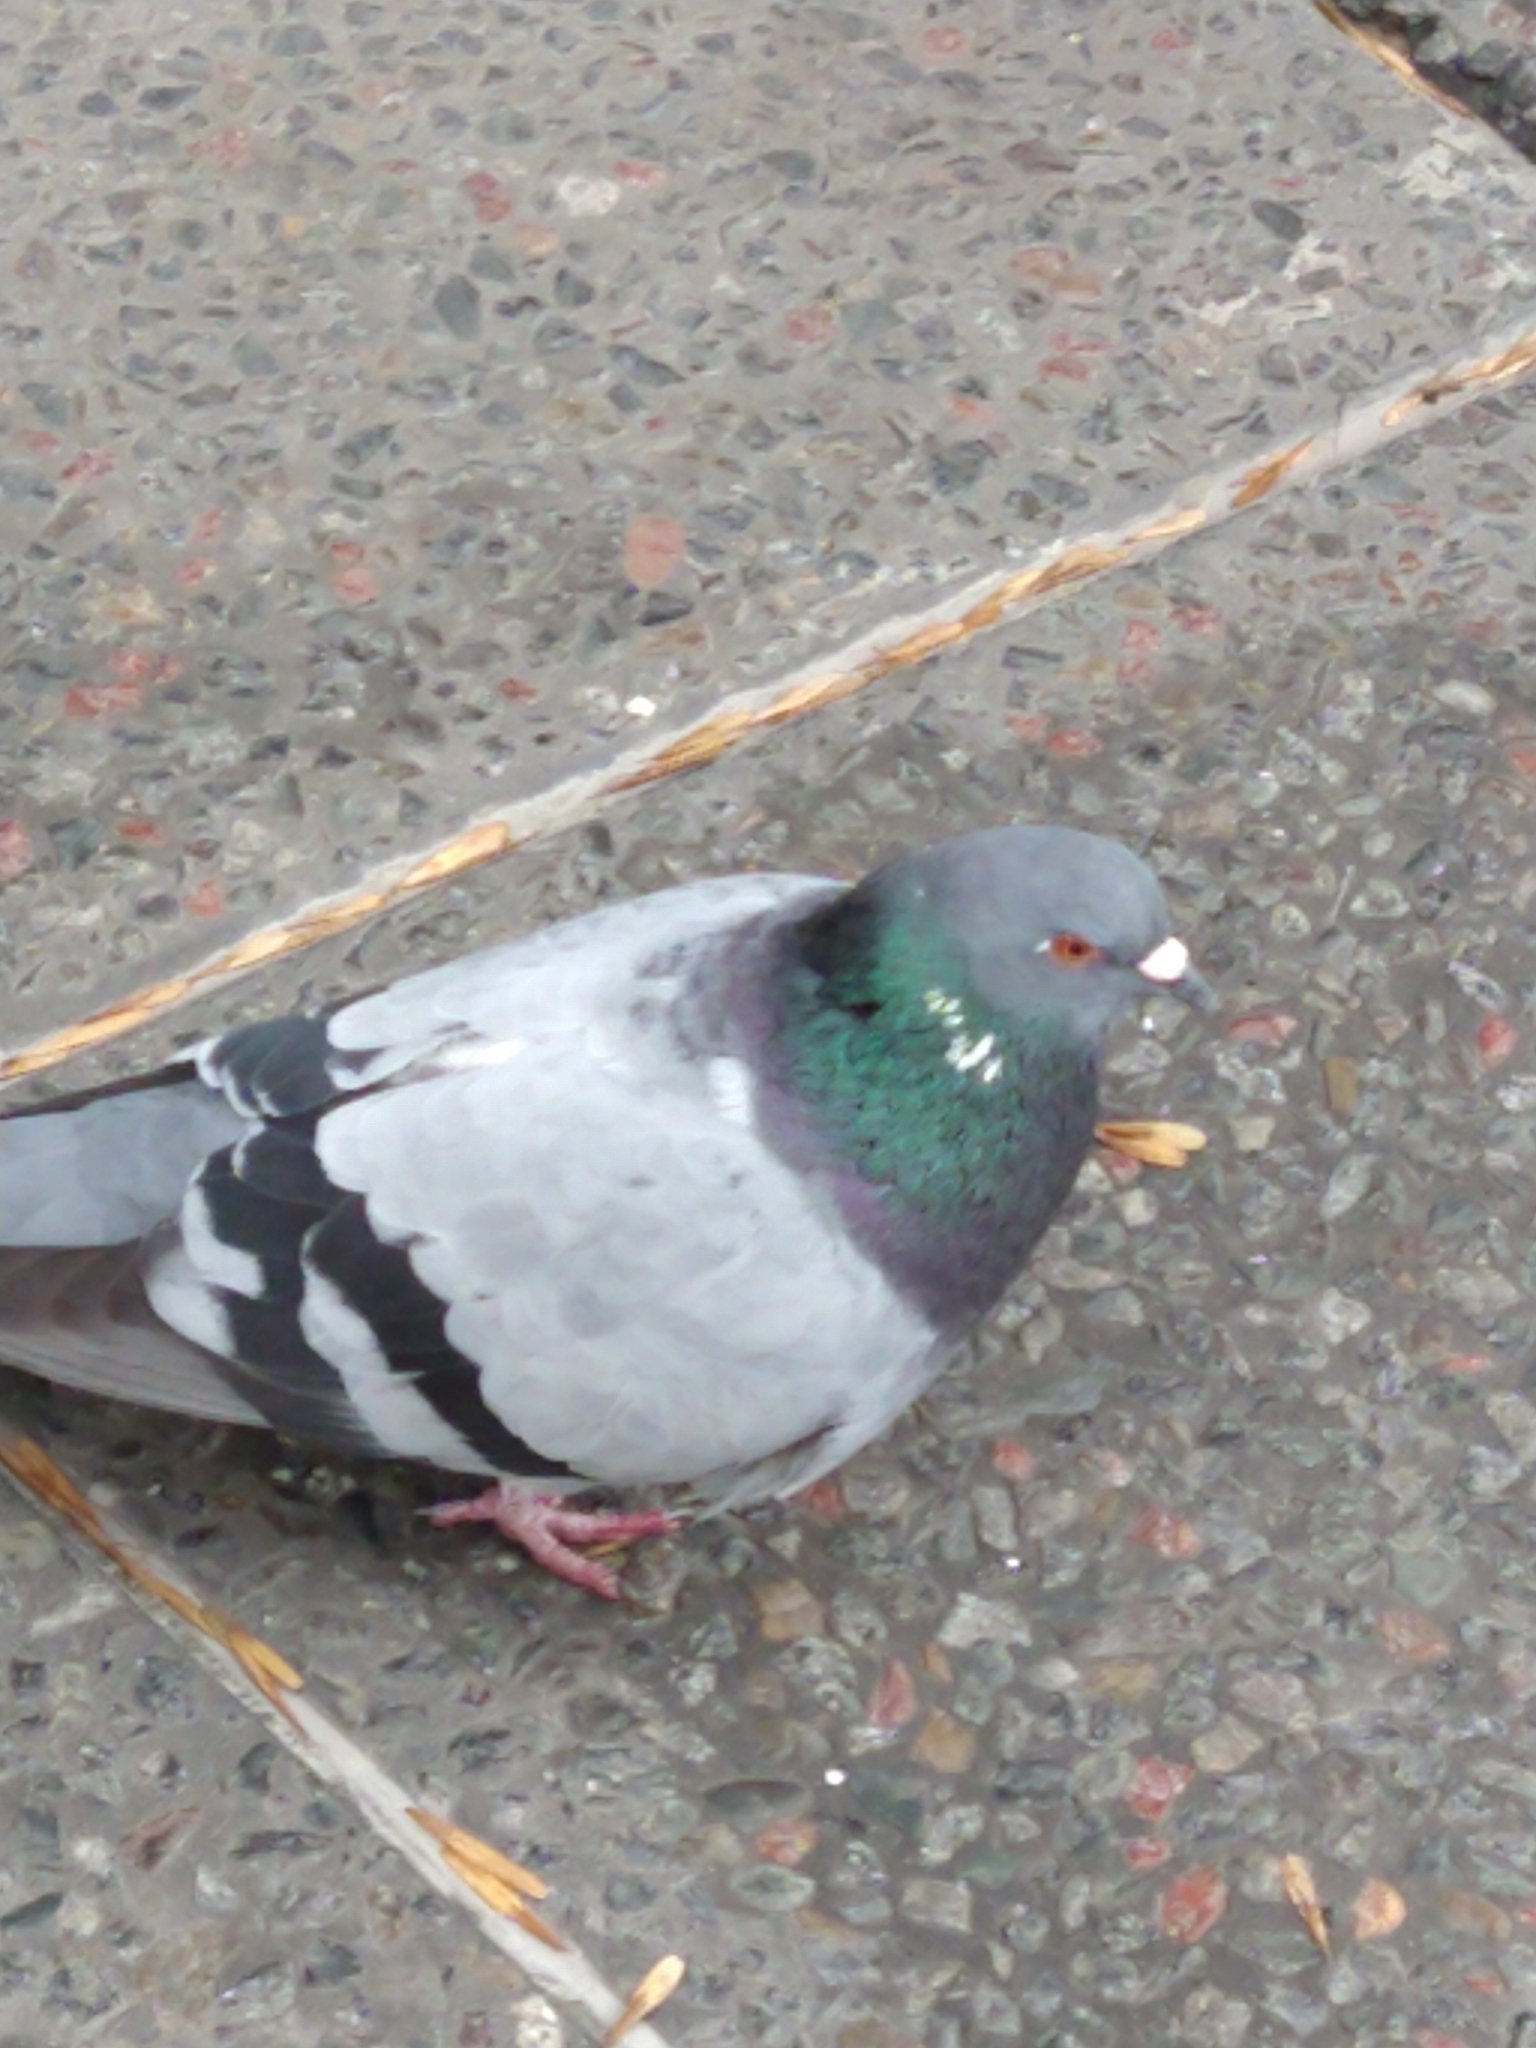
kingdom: Animalia
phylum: Chordata
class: Aves
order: Columbiformes
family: Columbidae
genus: Columba
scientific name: Columba livia
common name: Rock pigeon
